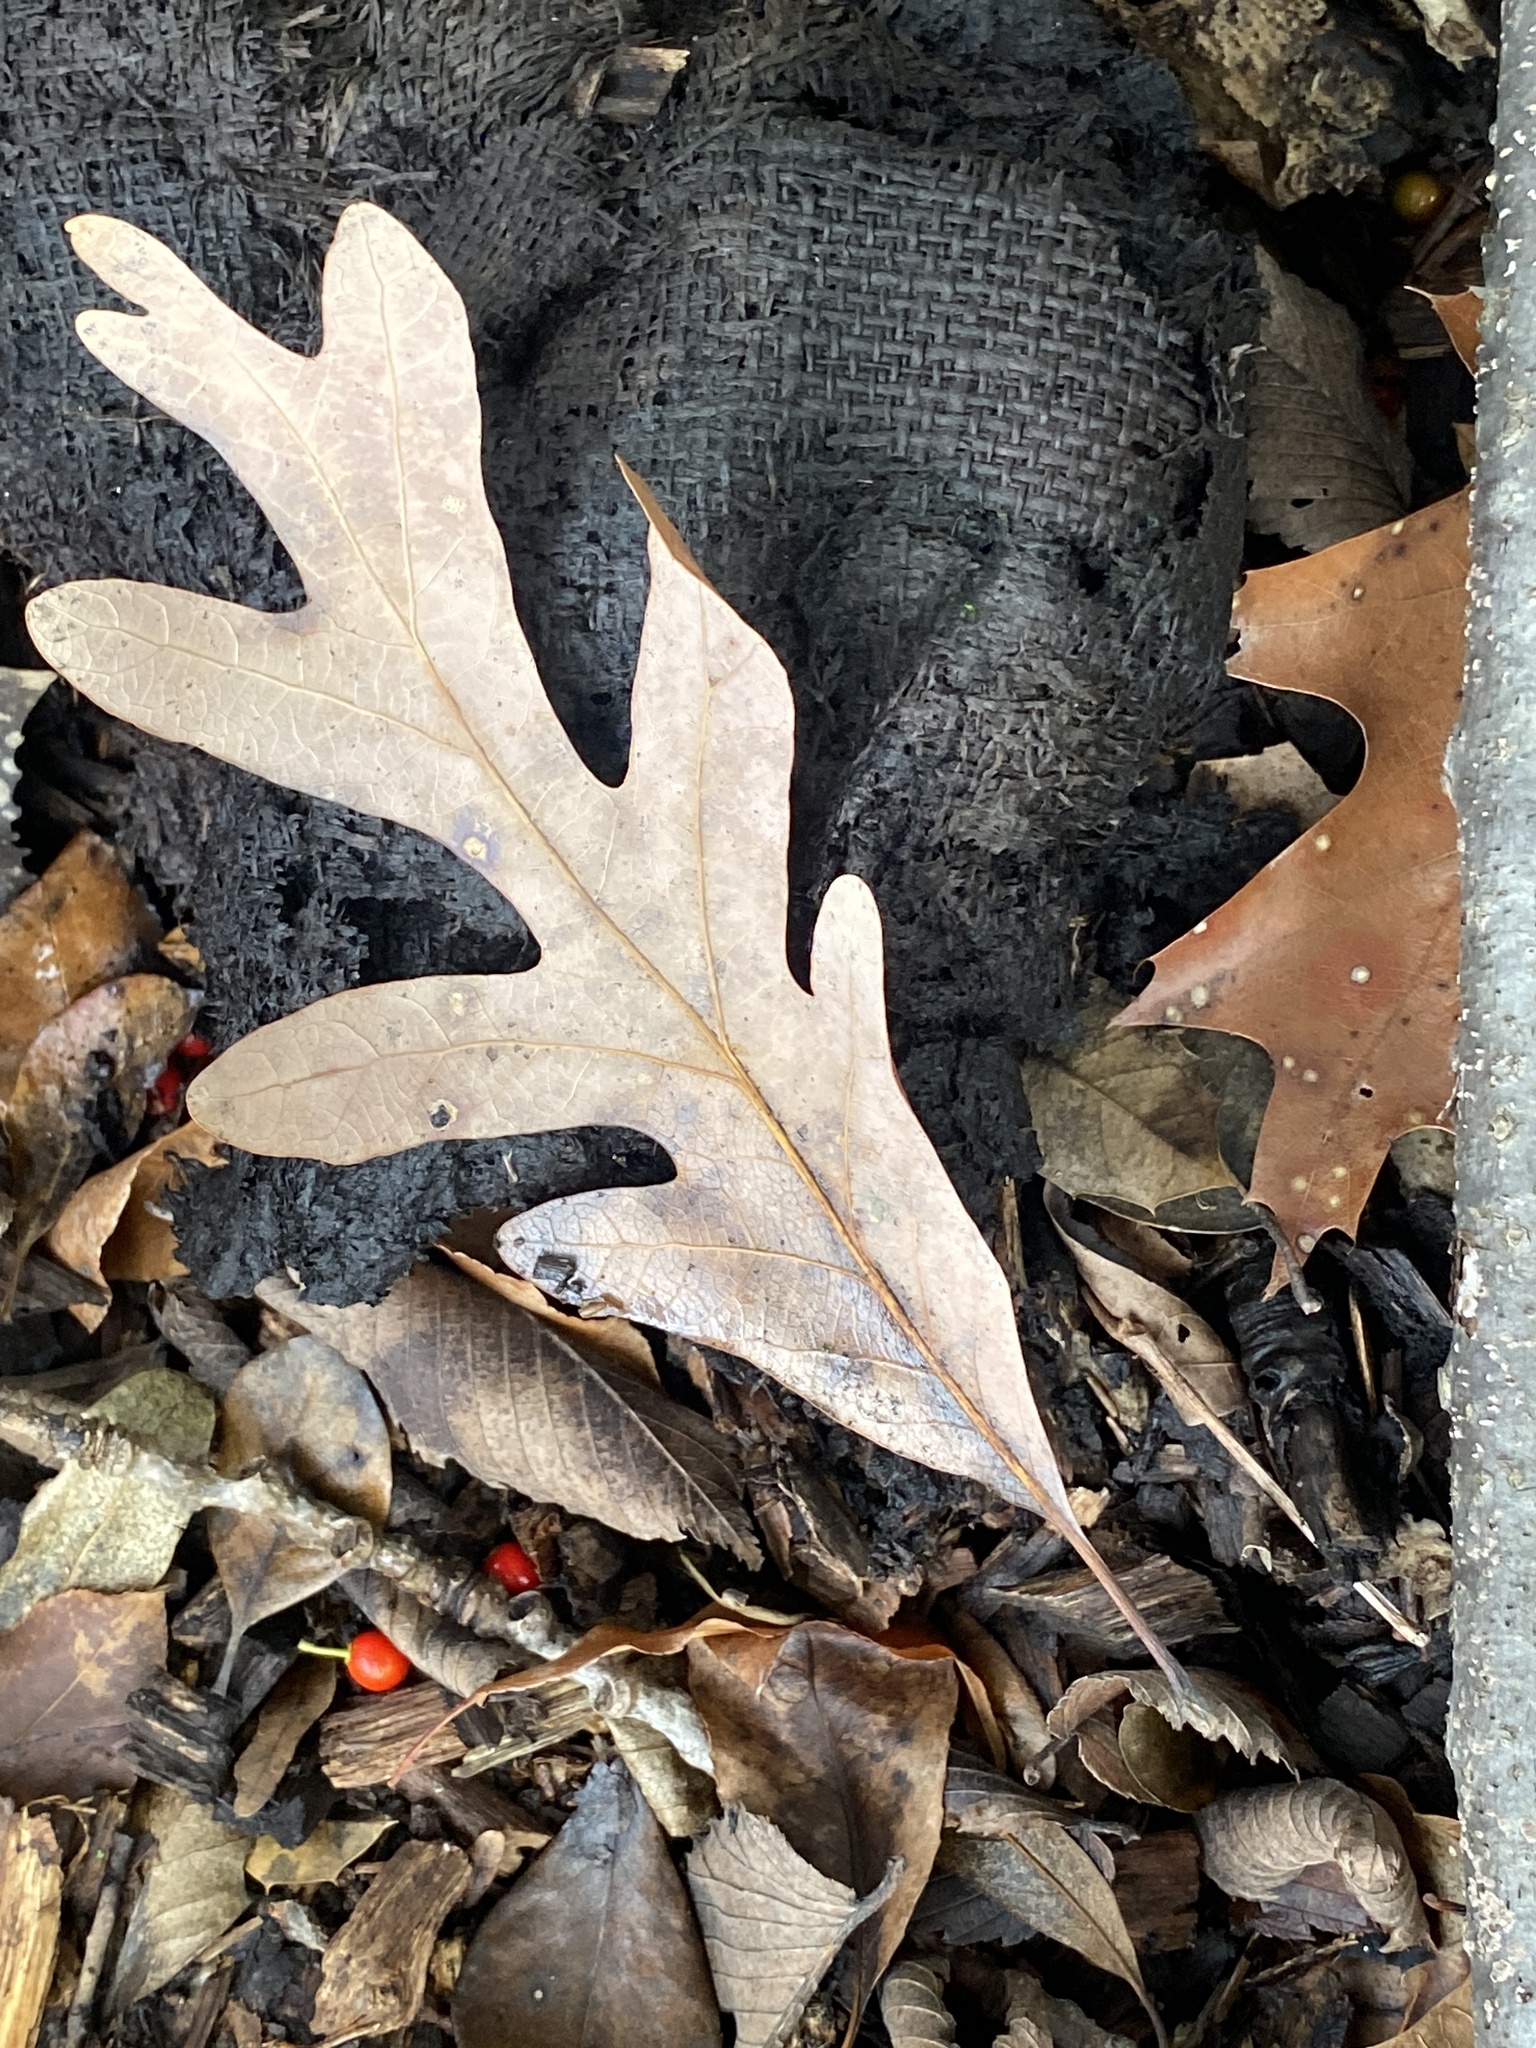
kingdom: Plantae
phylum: Tracheophyta
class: Magnoliopsida
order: Fagales
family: Fagaceae
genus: Quercus
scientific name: Quercus alba
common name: White oak
